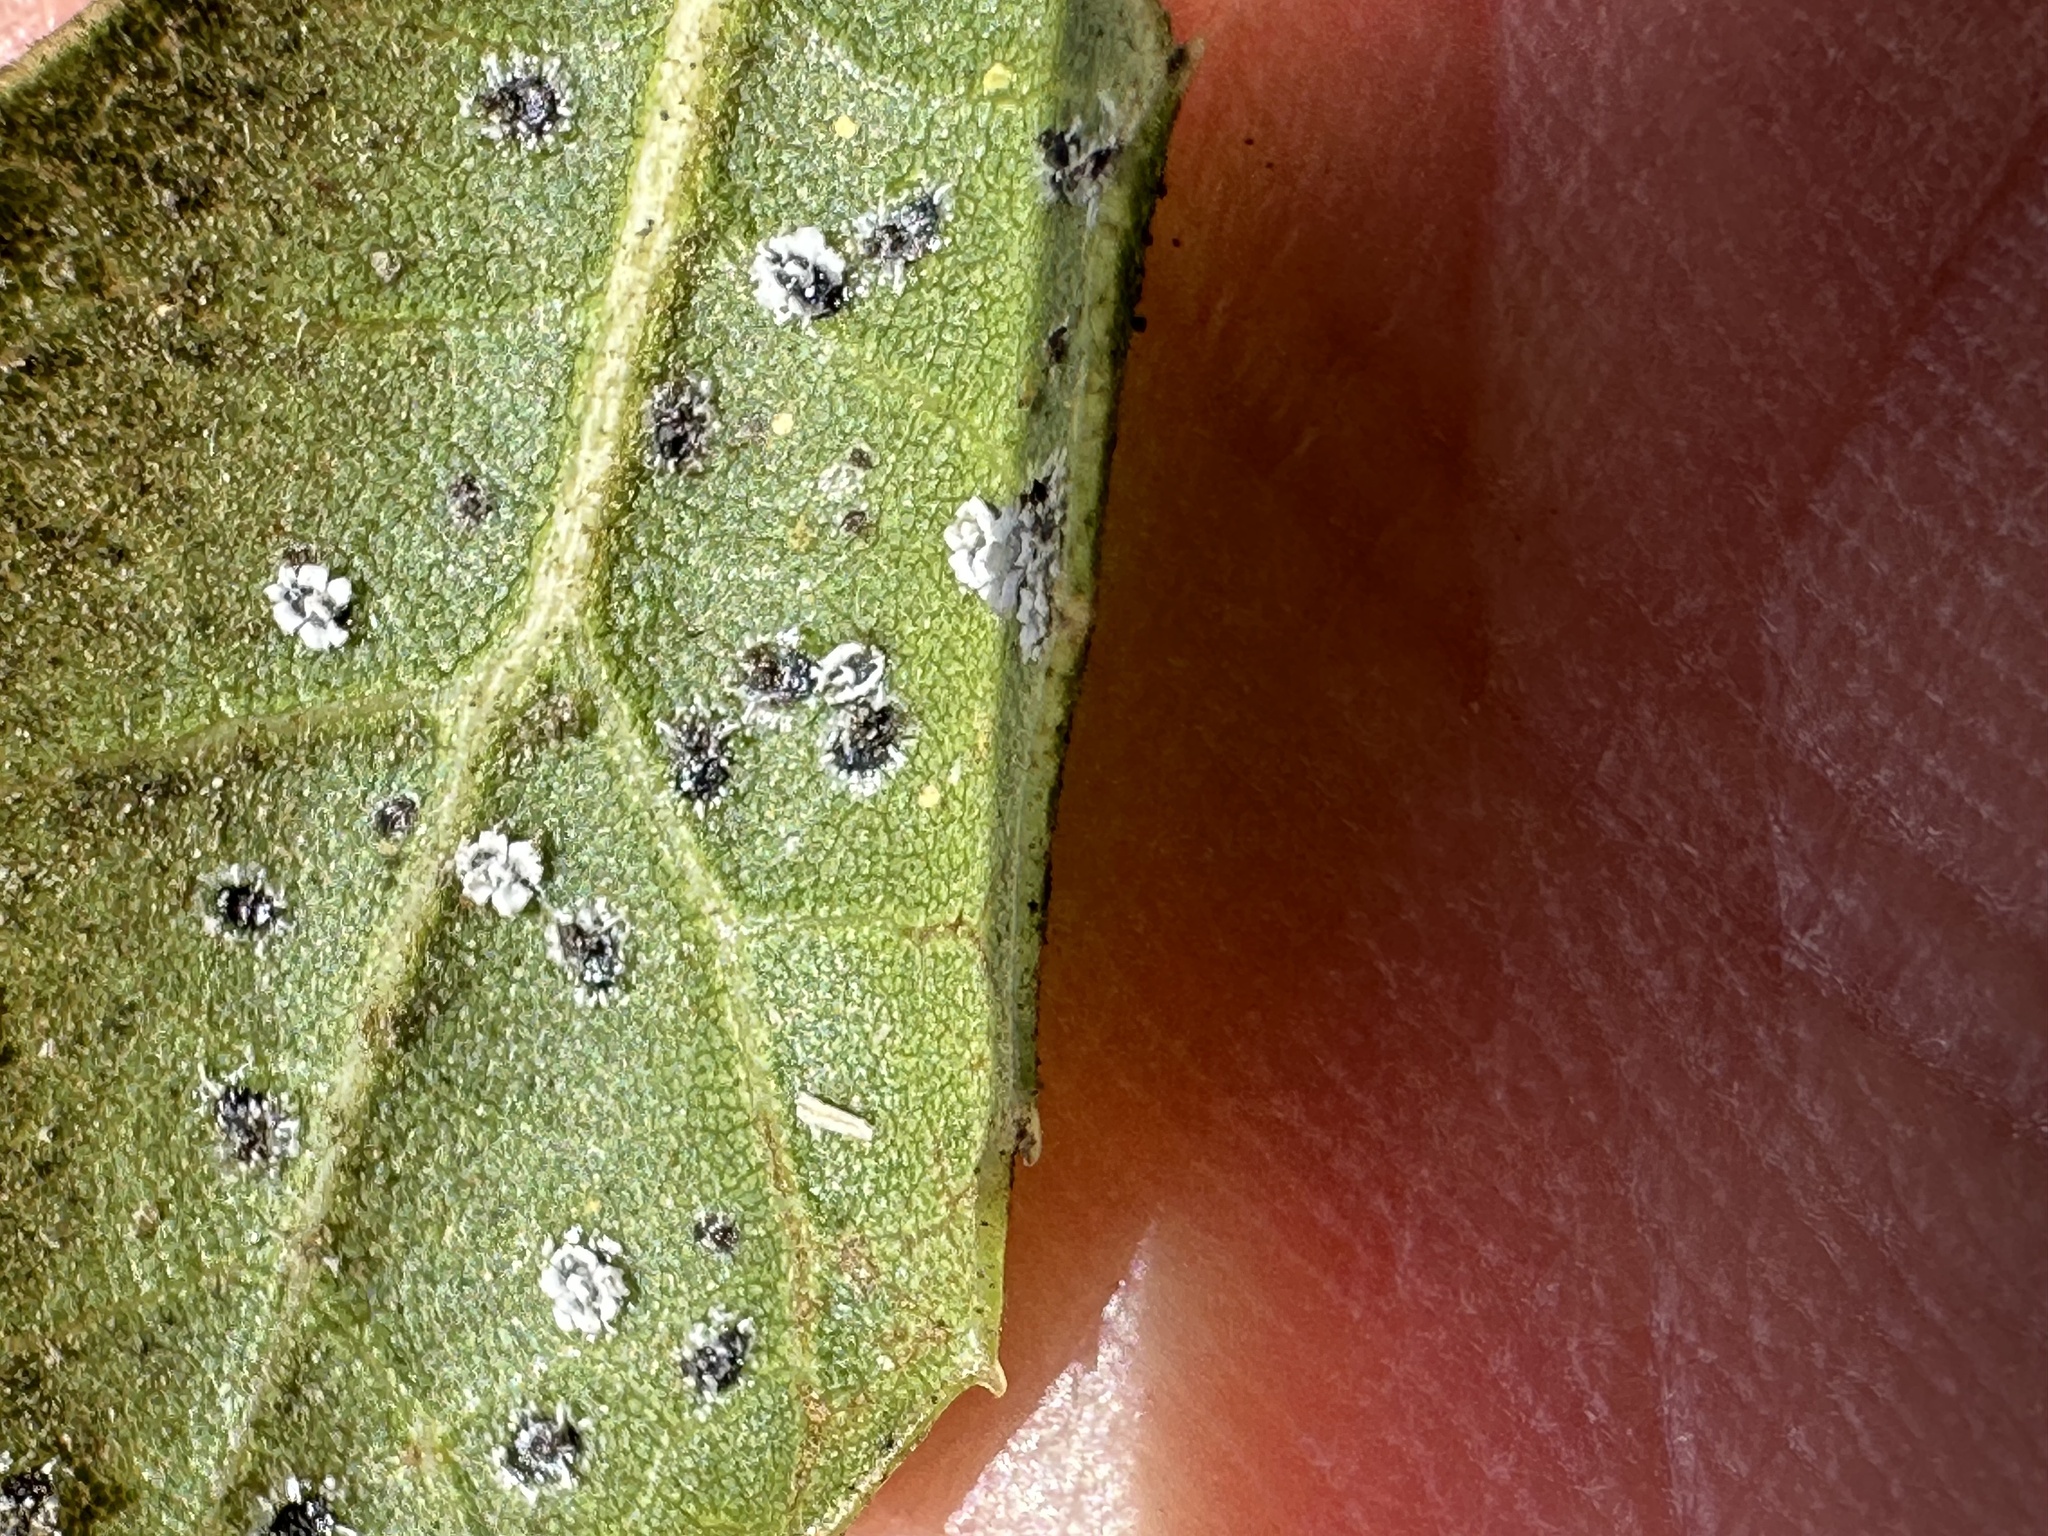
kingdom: Animalia
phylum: Arthropoda
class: Insecta
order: Hemiptera
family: Aleyrodidae
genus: Aleuroplatus
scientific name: Aleuroplatus coronata
